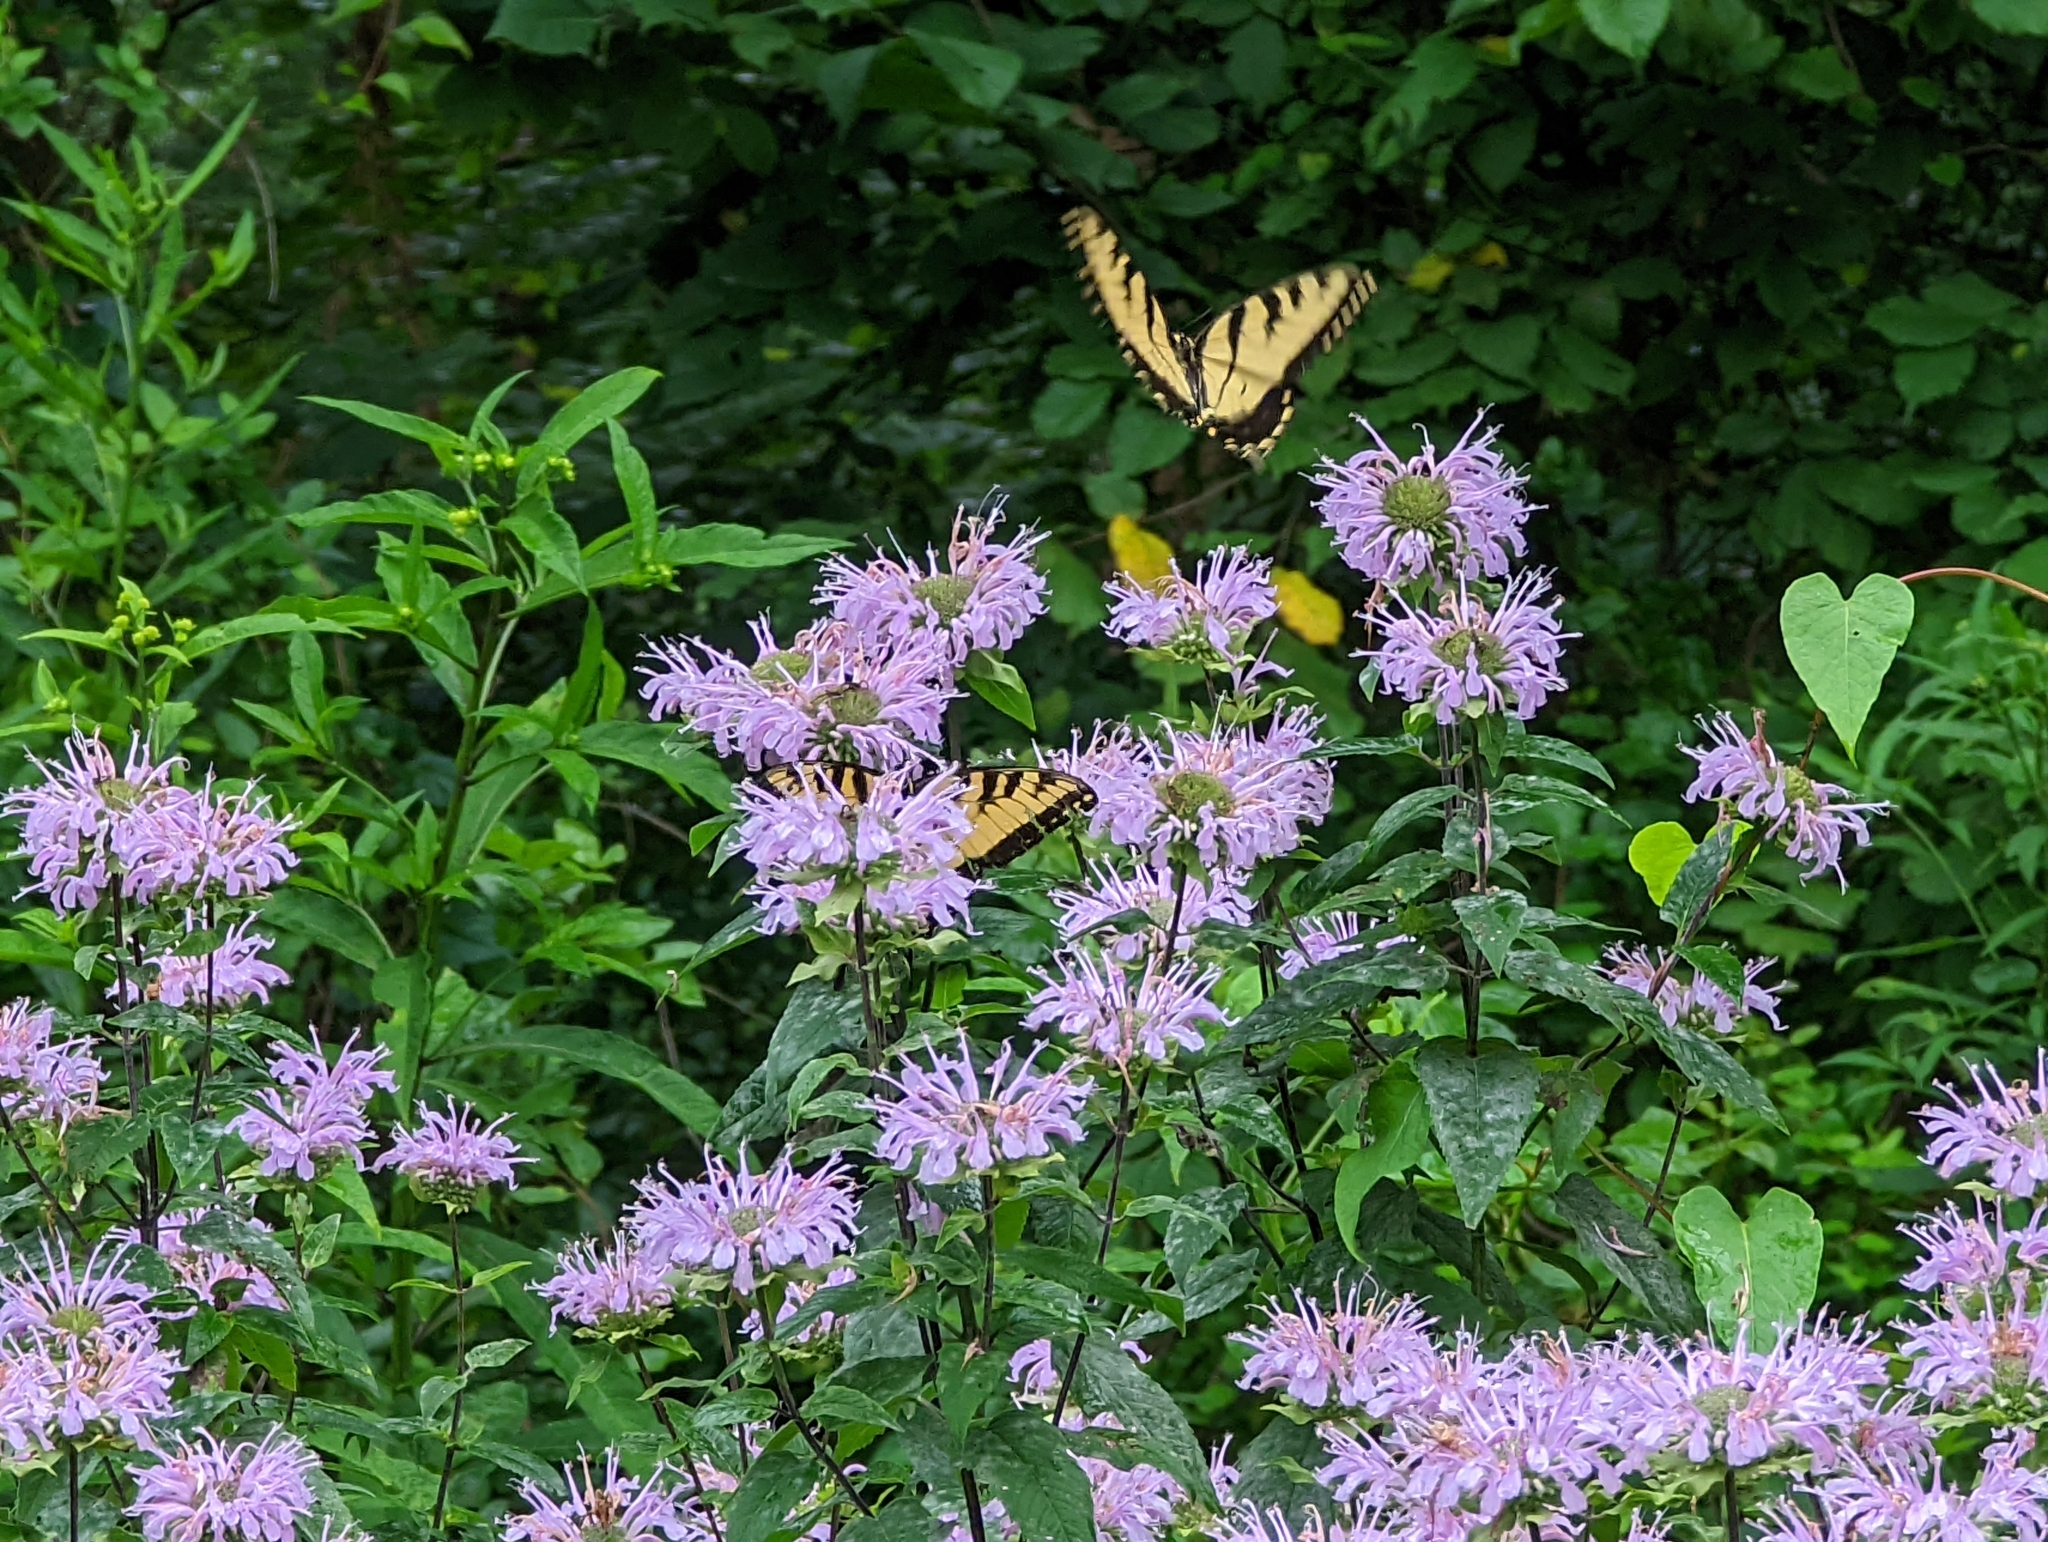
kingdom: Animalia
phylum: Arthropoda
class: Insecta
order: Lepidoptera
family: Papilionidae
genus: Papilio
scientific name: Papilio glaucus
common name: Tiger swallowtail
